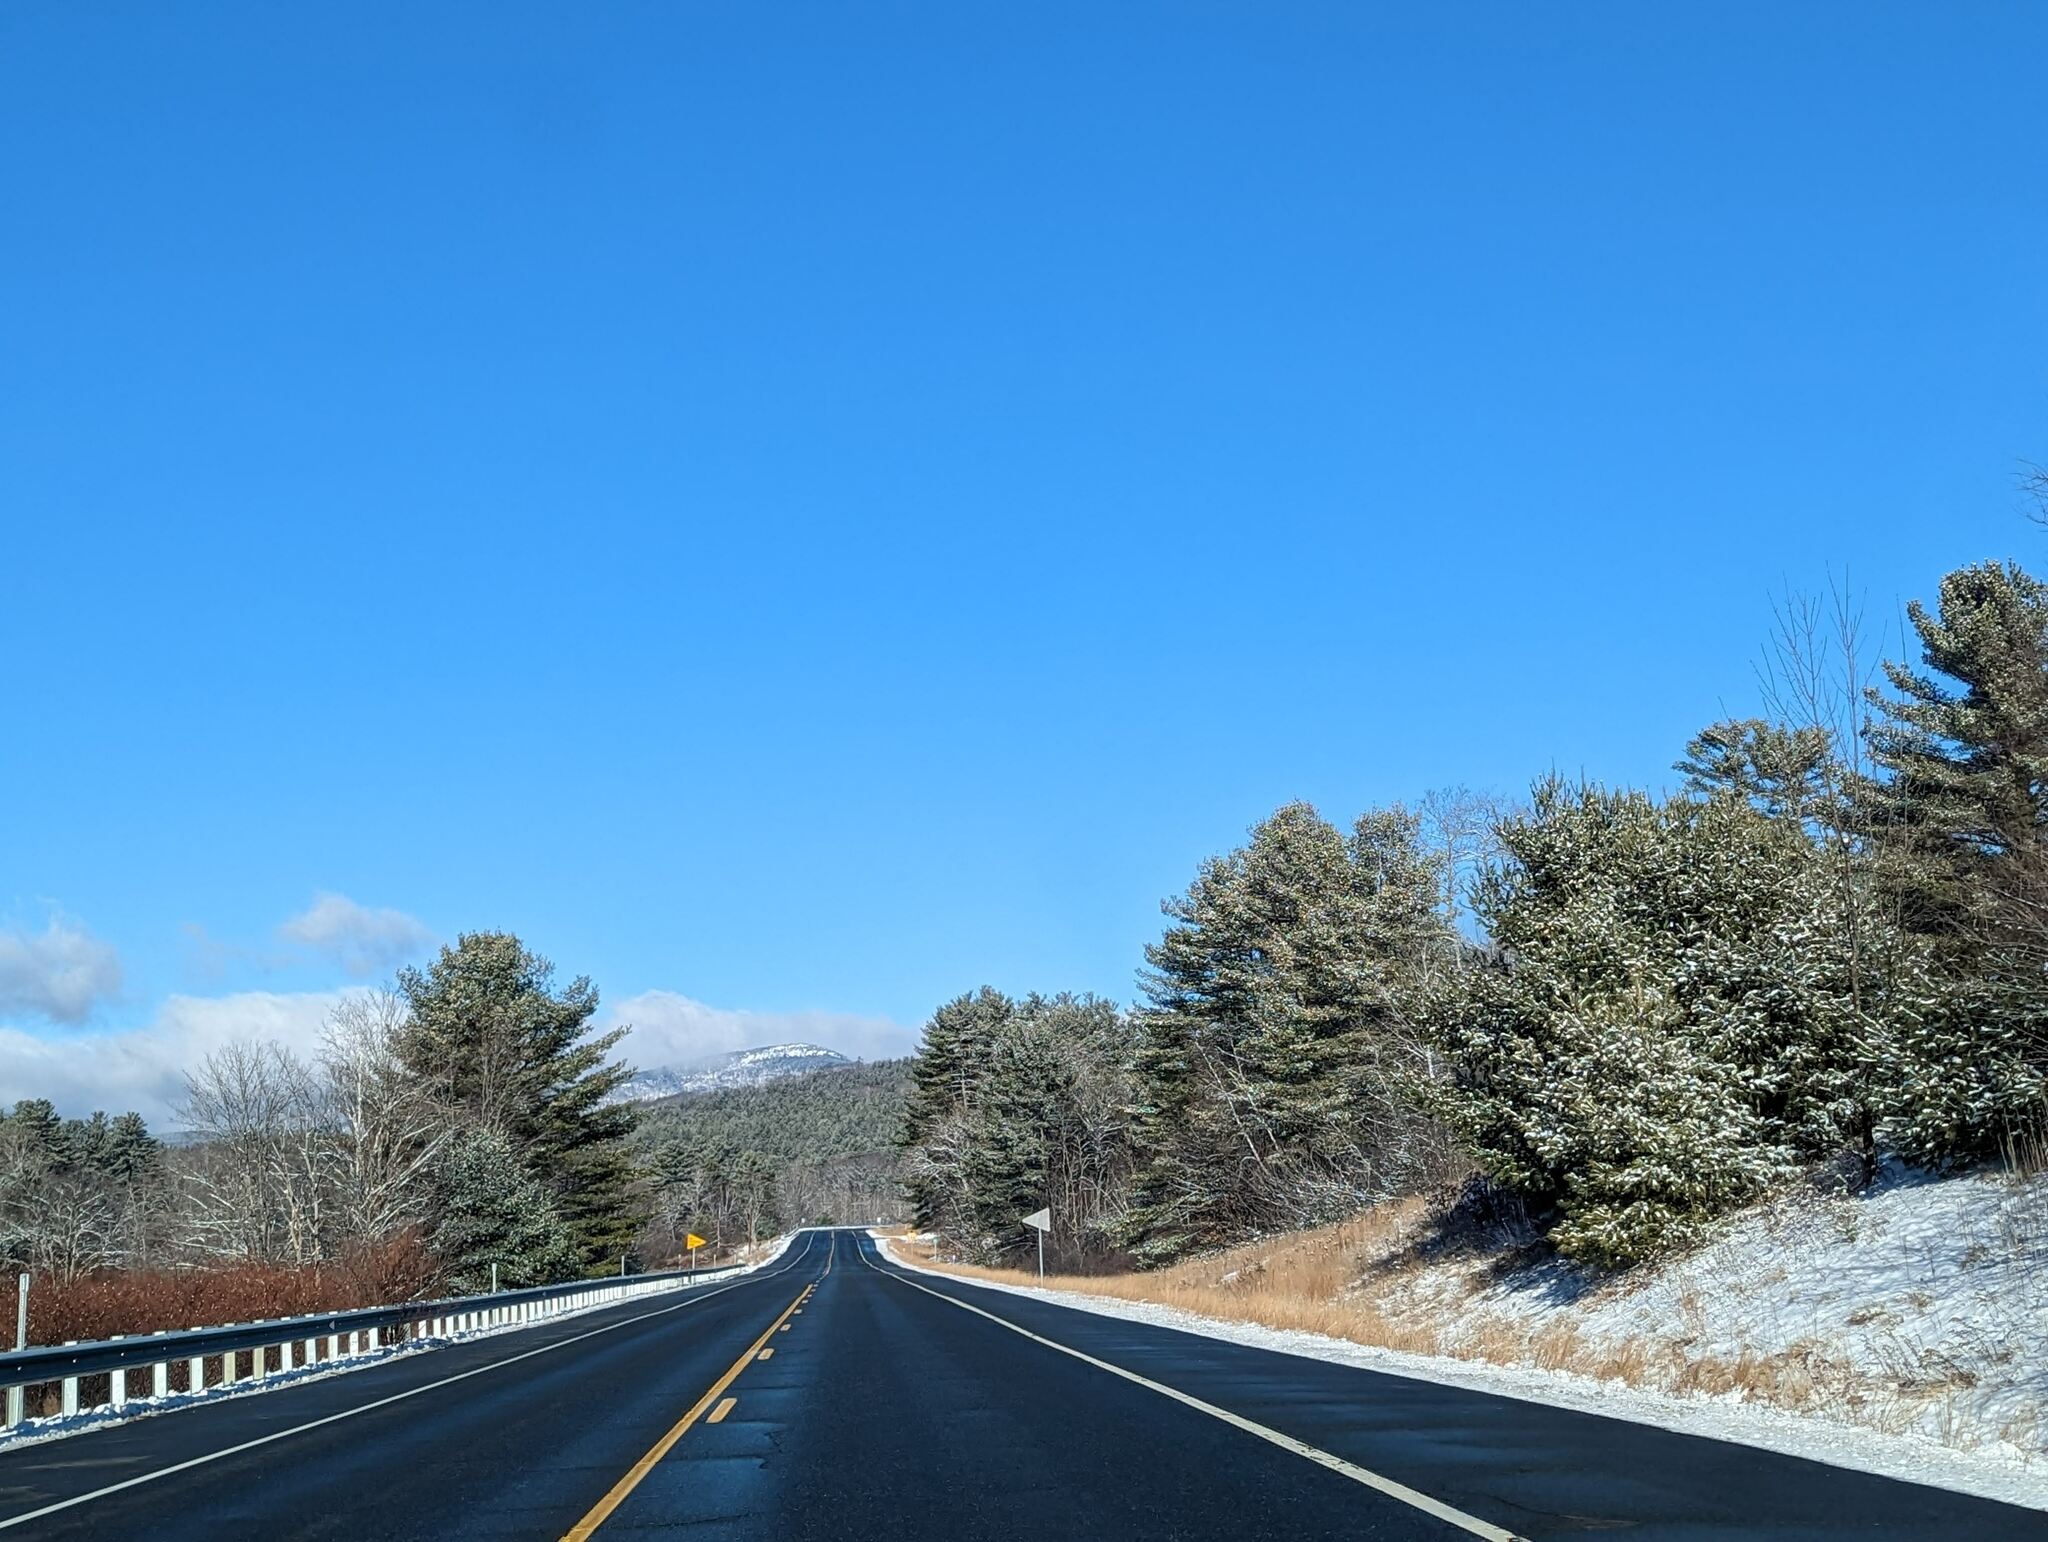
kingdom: Plantae
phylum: Tracheophyta
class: Pinopsida
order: Pinales
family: Pinaceae
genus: Pinus
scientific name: Pinus strobus
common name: Weymouth pine
